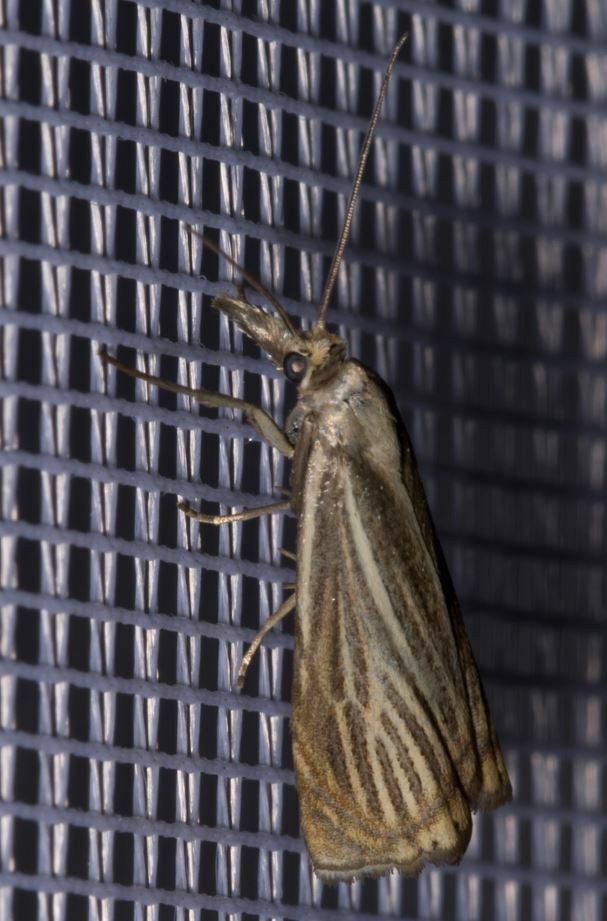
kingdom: Animalia
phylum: Arthropoda
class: Insecta
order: Lepidoptera
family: Crambidae
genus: Chrysoteuchia
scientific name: Chrysoteuchia culmella
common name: Garden grass-veneer
